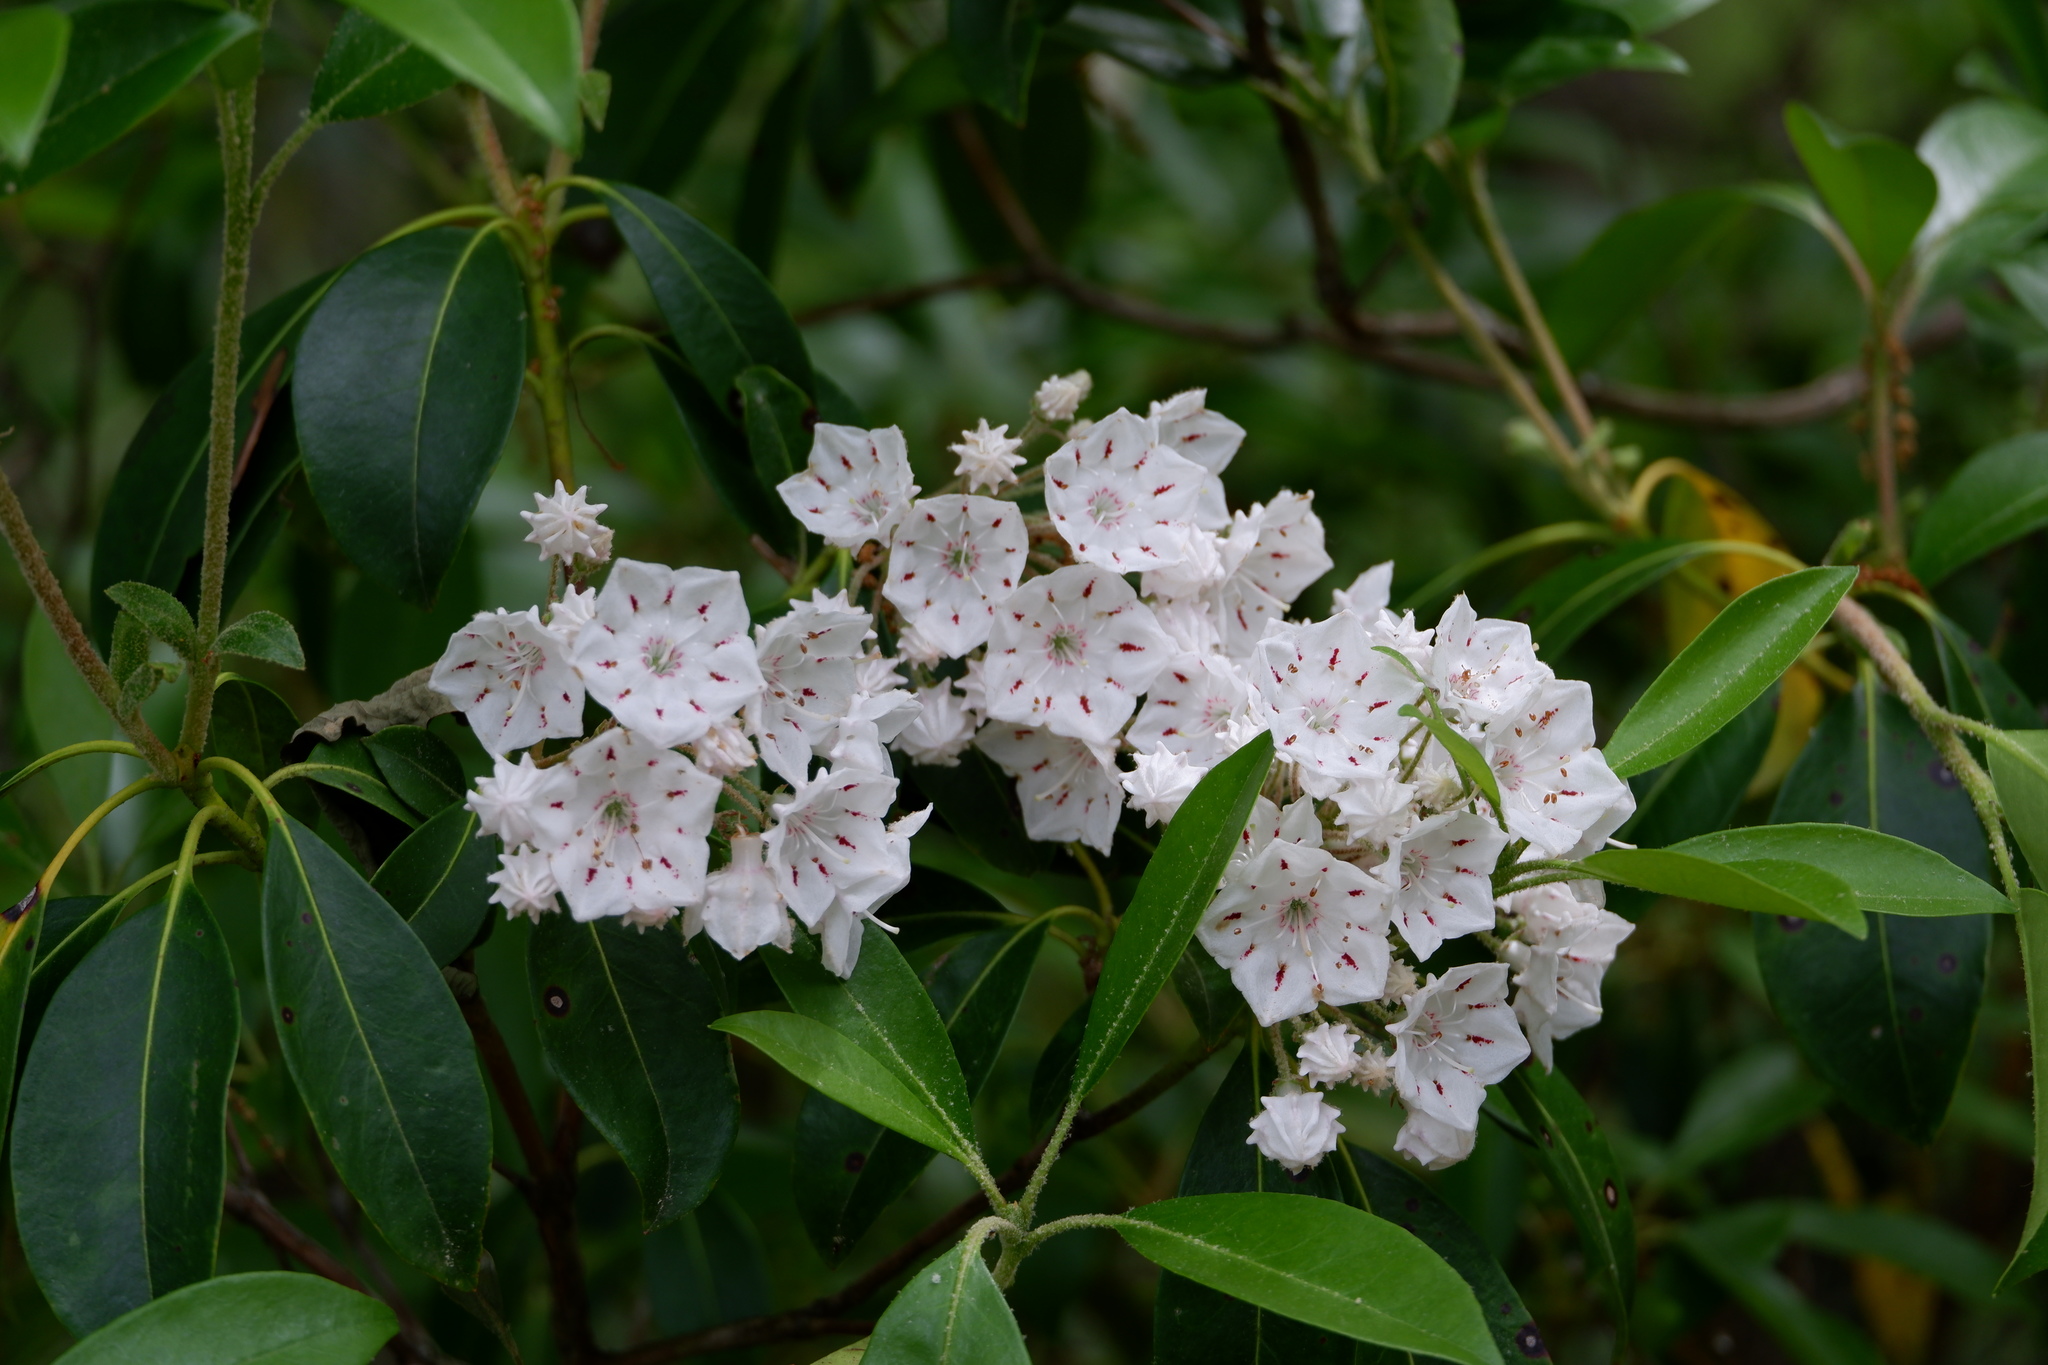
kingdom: Plantae
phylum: Tracheophyta
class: Magnoliopsida
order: Ericales
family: Ericaceae
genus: Kalmia
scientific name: Kalmia latifolia
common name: Mountain-laurel
